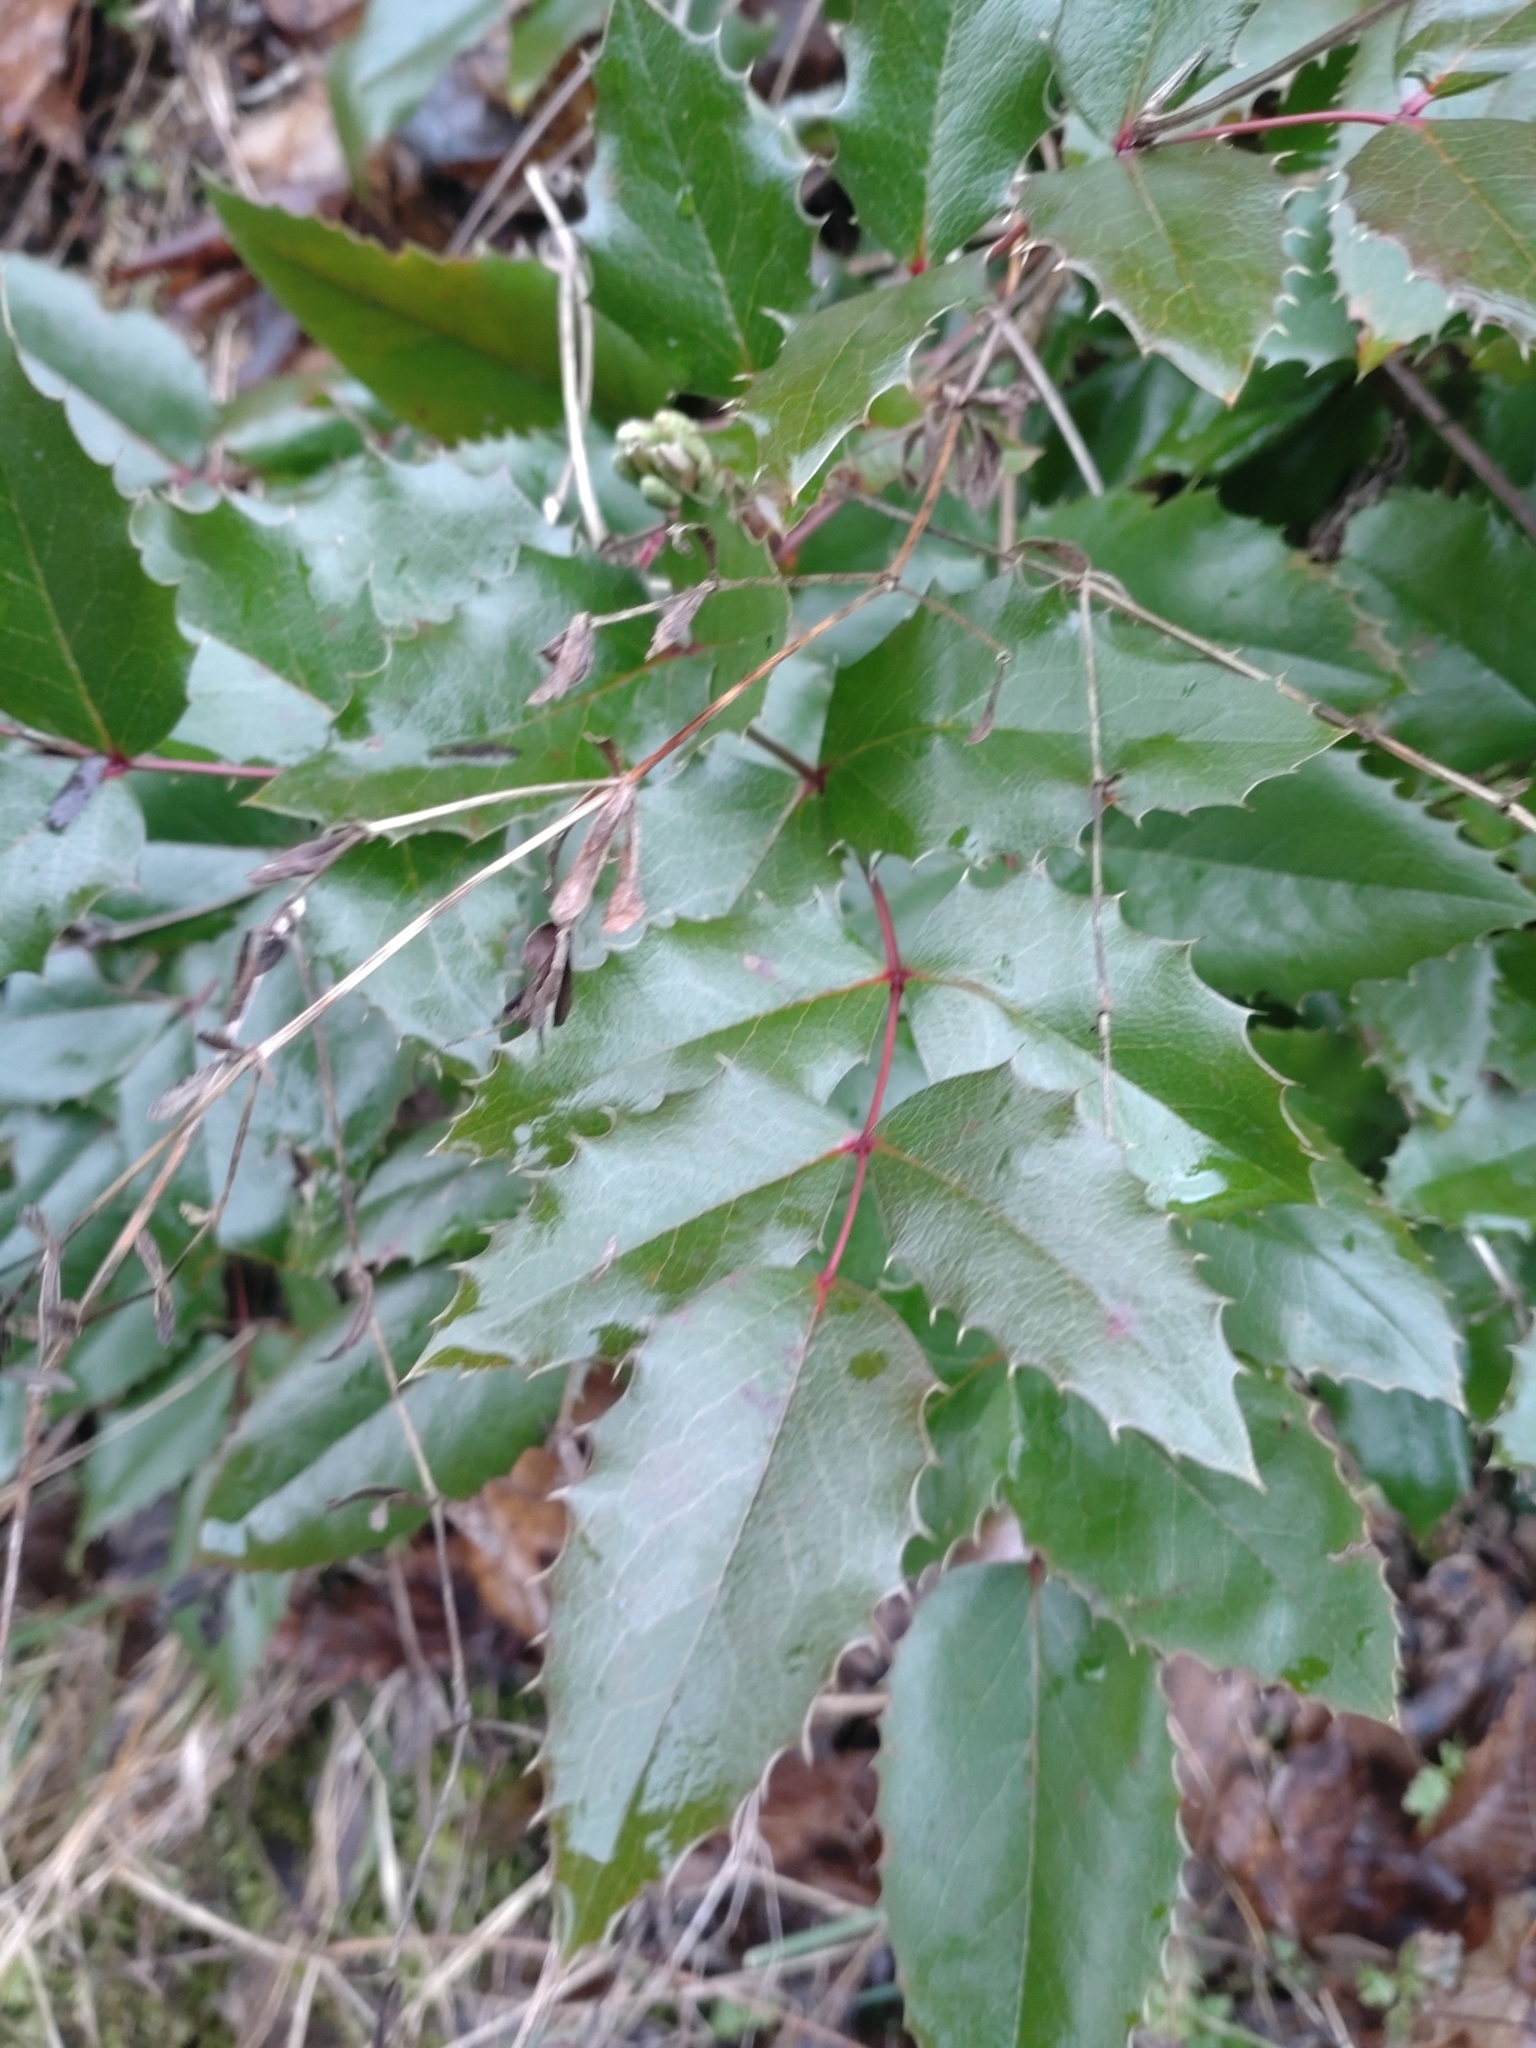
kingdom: Plantae
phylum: Tracheophyta
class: Magnoliopsida
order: Ranunculales
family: Berberidaceae
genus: Mahonia
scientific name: Mahonia aquifolium
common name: Oregon-grape
